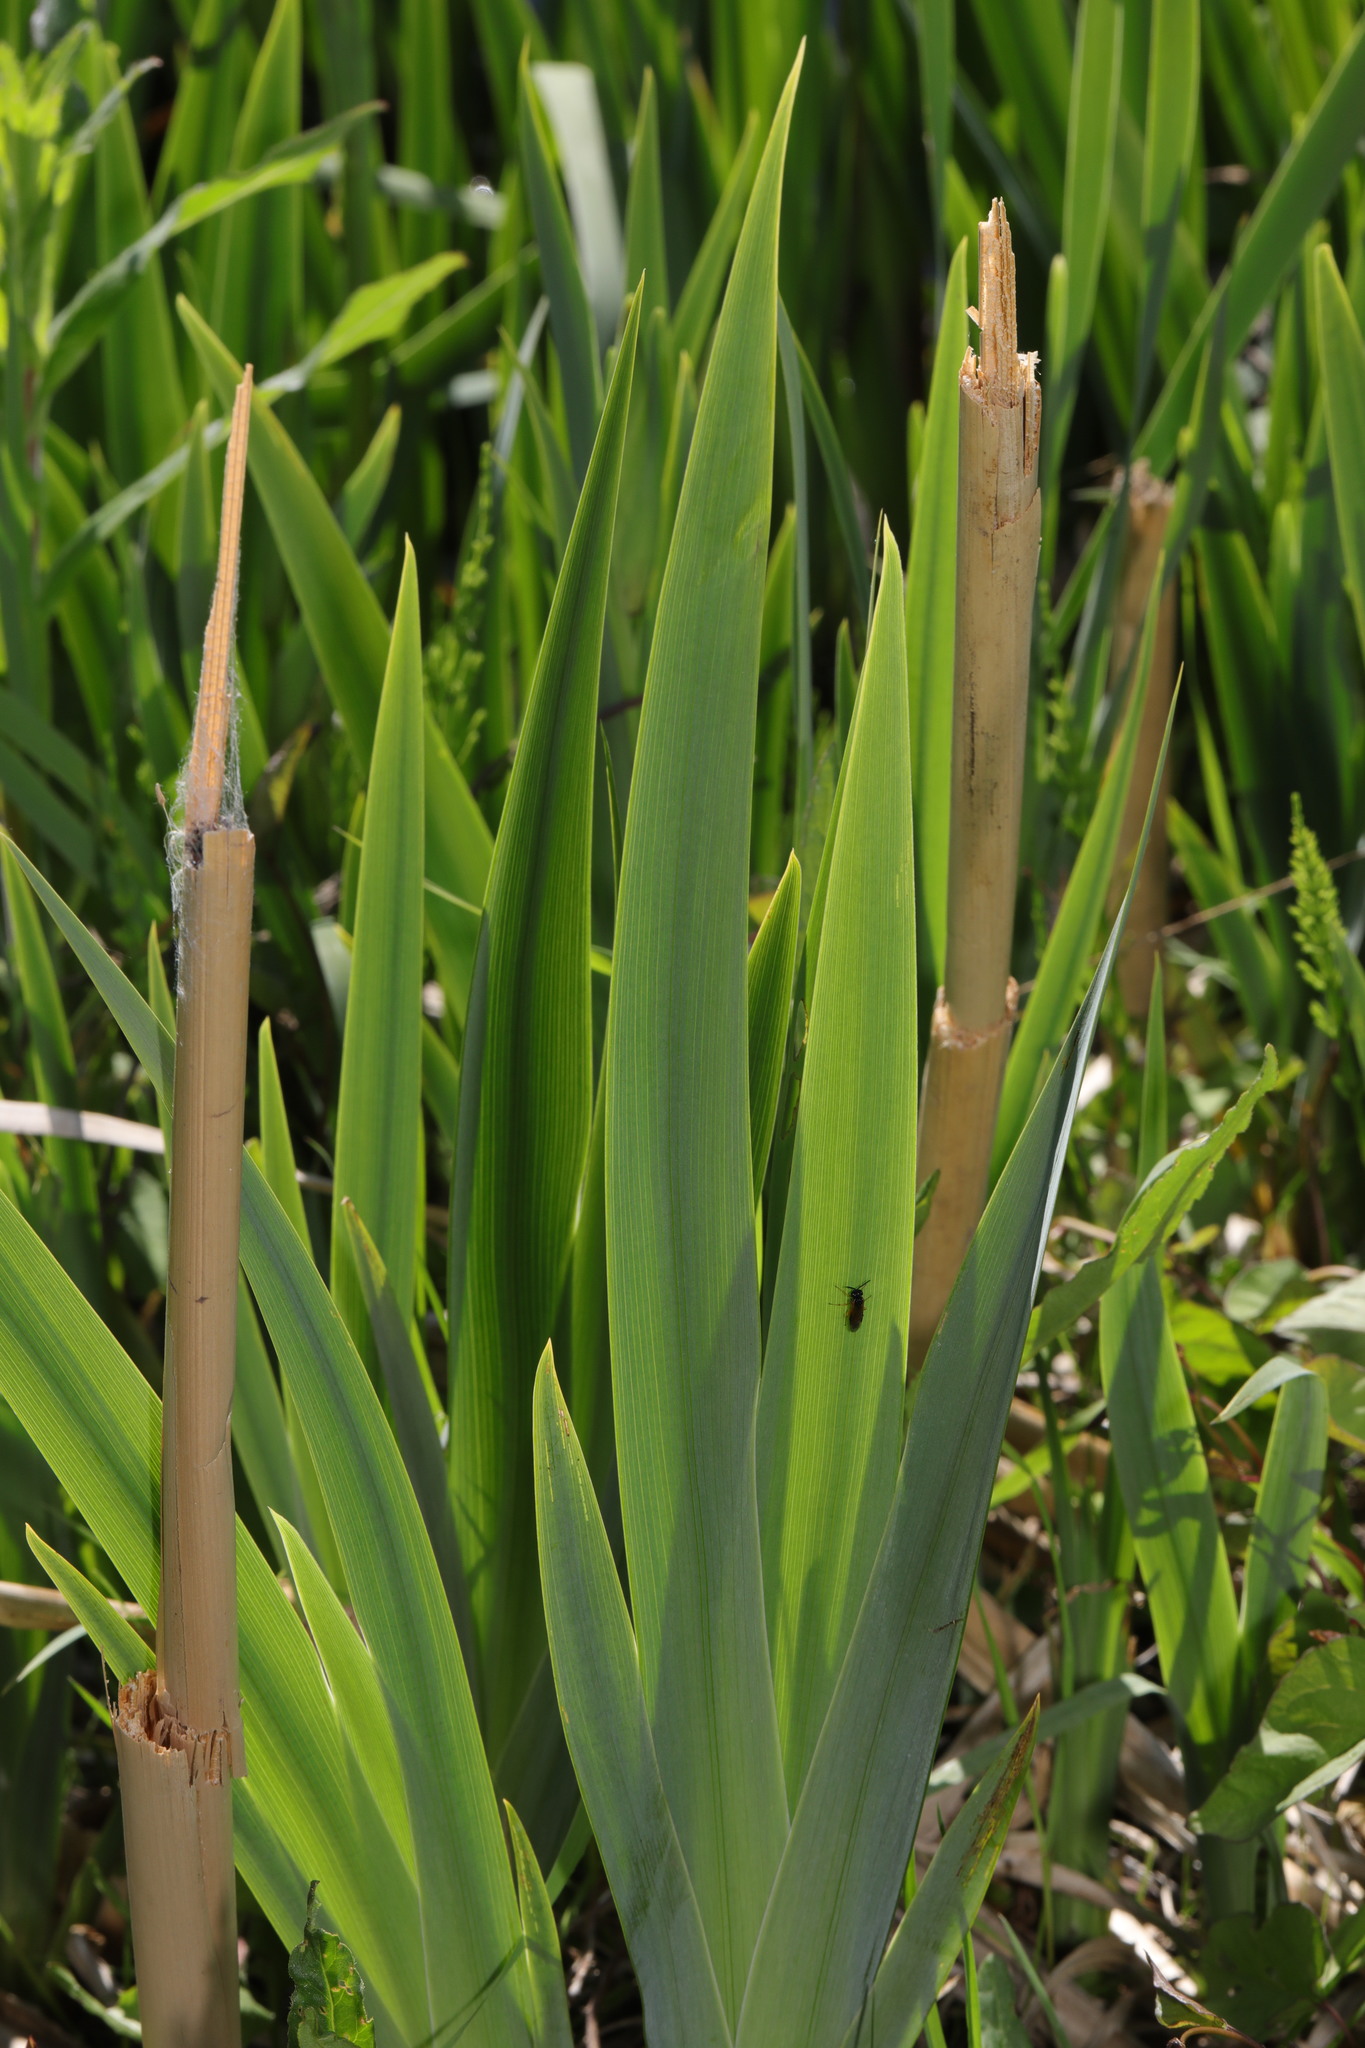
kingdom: Plantae
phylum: Tracheophyta
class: Liliopsida
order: Asparagales
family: Iridaceae
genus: Iris
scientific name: Iris pseudacorus
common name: Yellow flag
